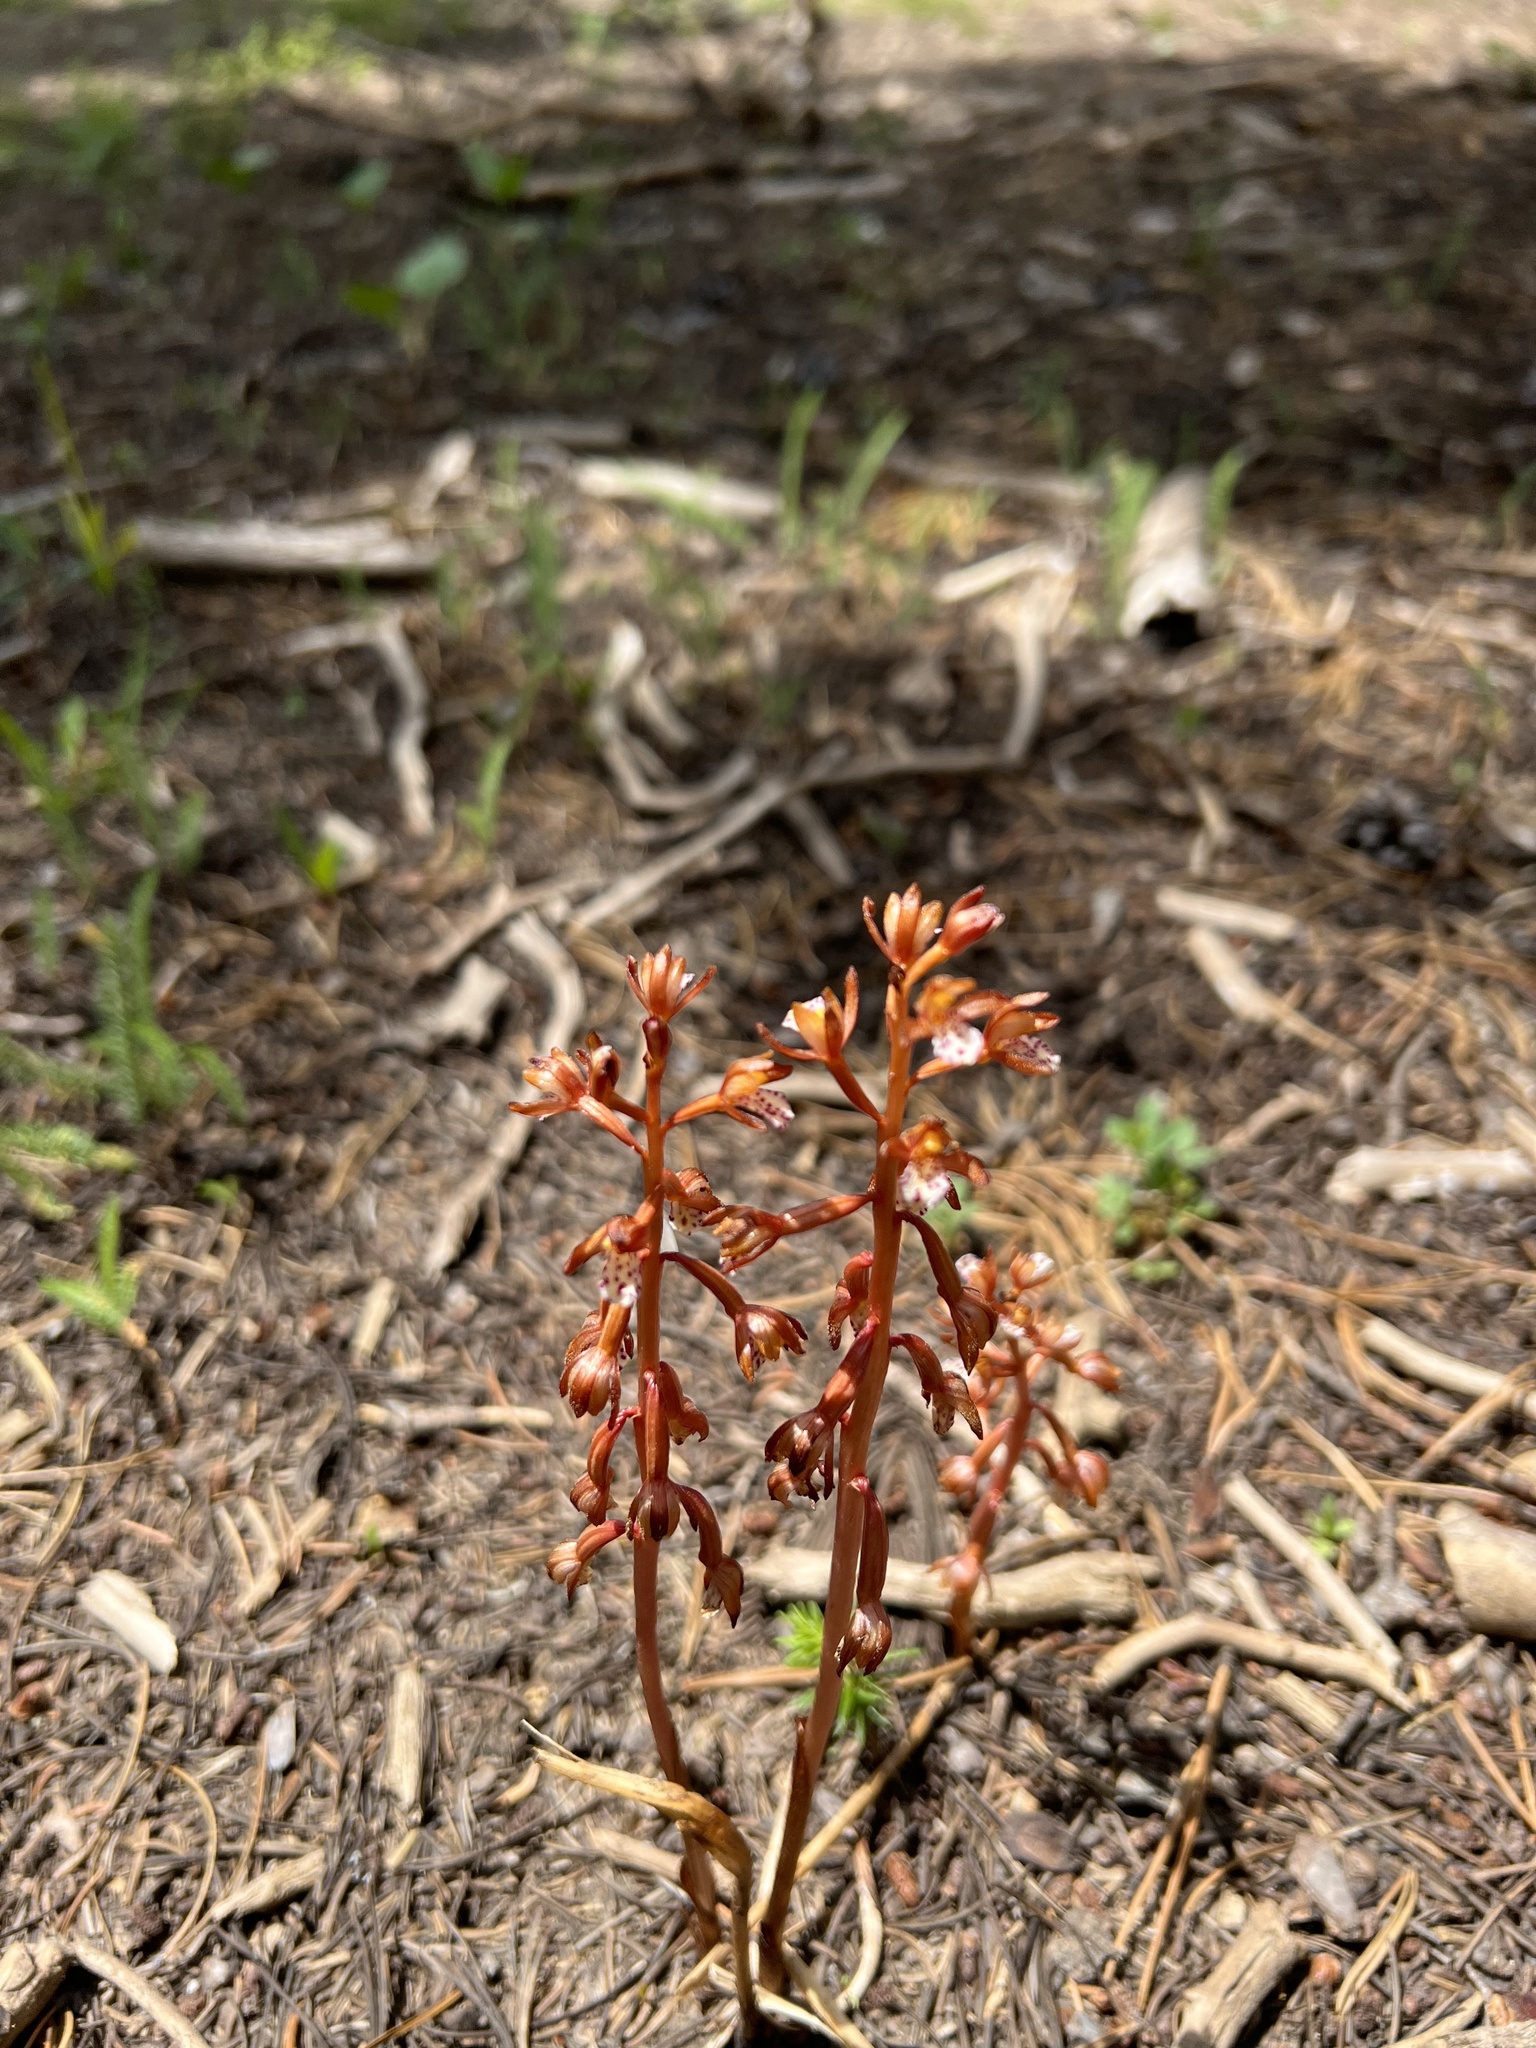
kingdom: Plantae
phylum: Tracheophyta
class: Liliopsida
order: Asparagales
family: Orchidaceae
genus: Corallorhiza
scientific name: Corallorhiza maculata
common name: Spotted coralroot
